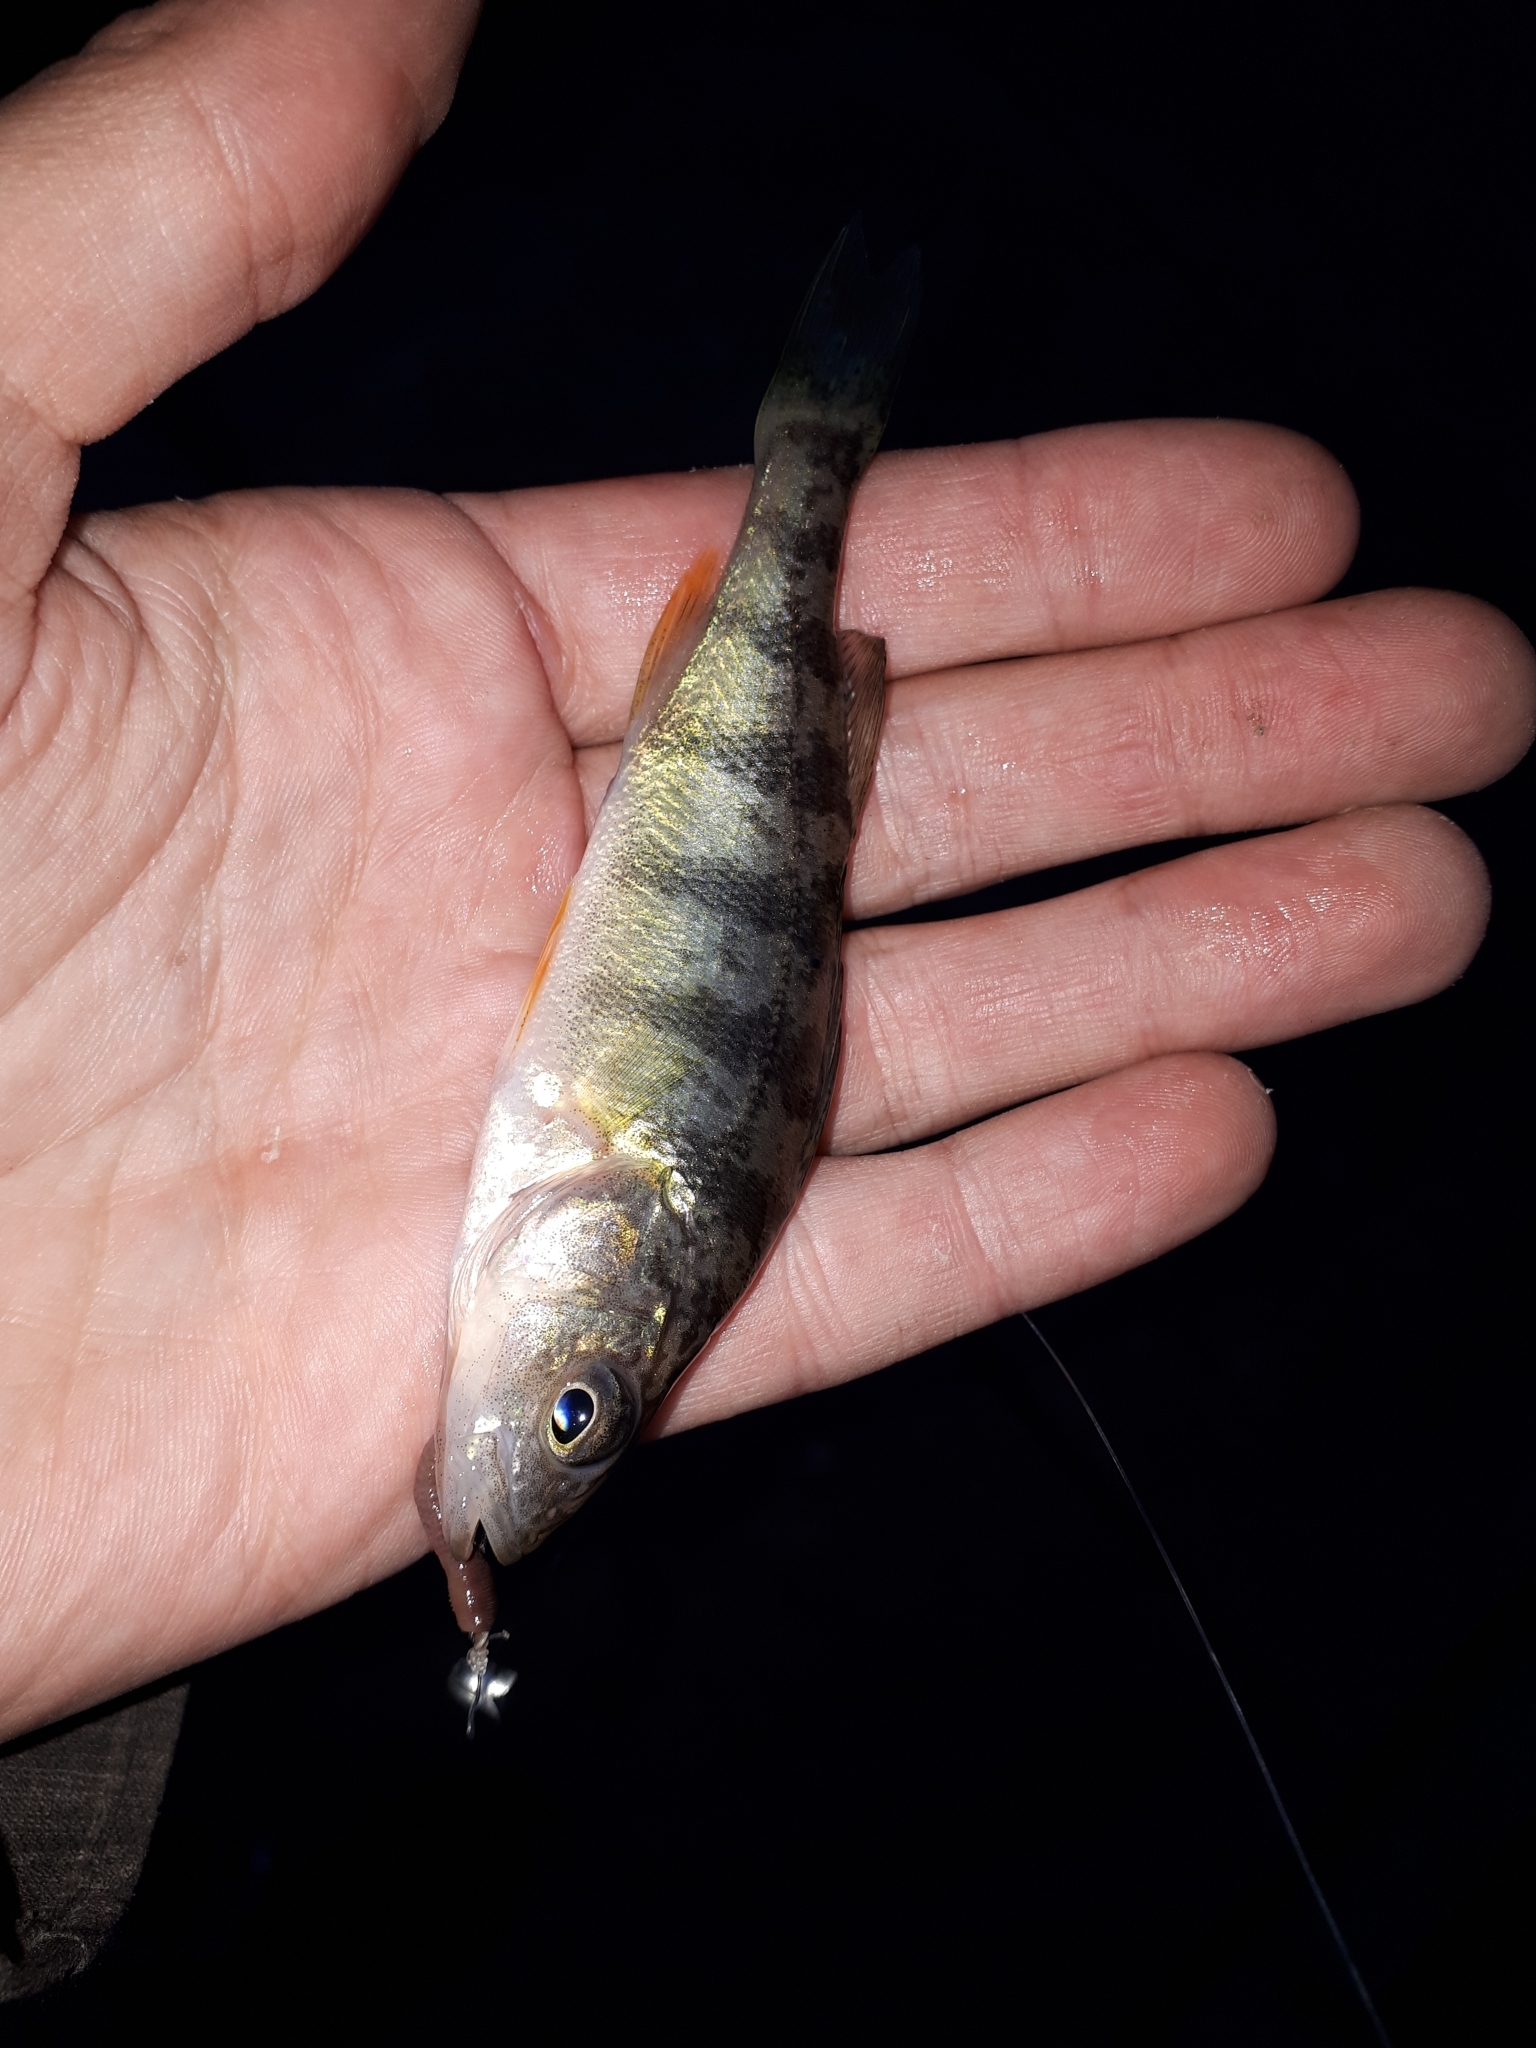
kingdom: Animalia
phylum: Chordata
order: Perciformes
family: Percidae
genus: Perca
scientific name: Perca flavescens
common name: Yellow perch
